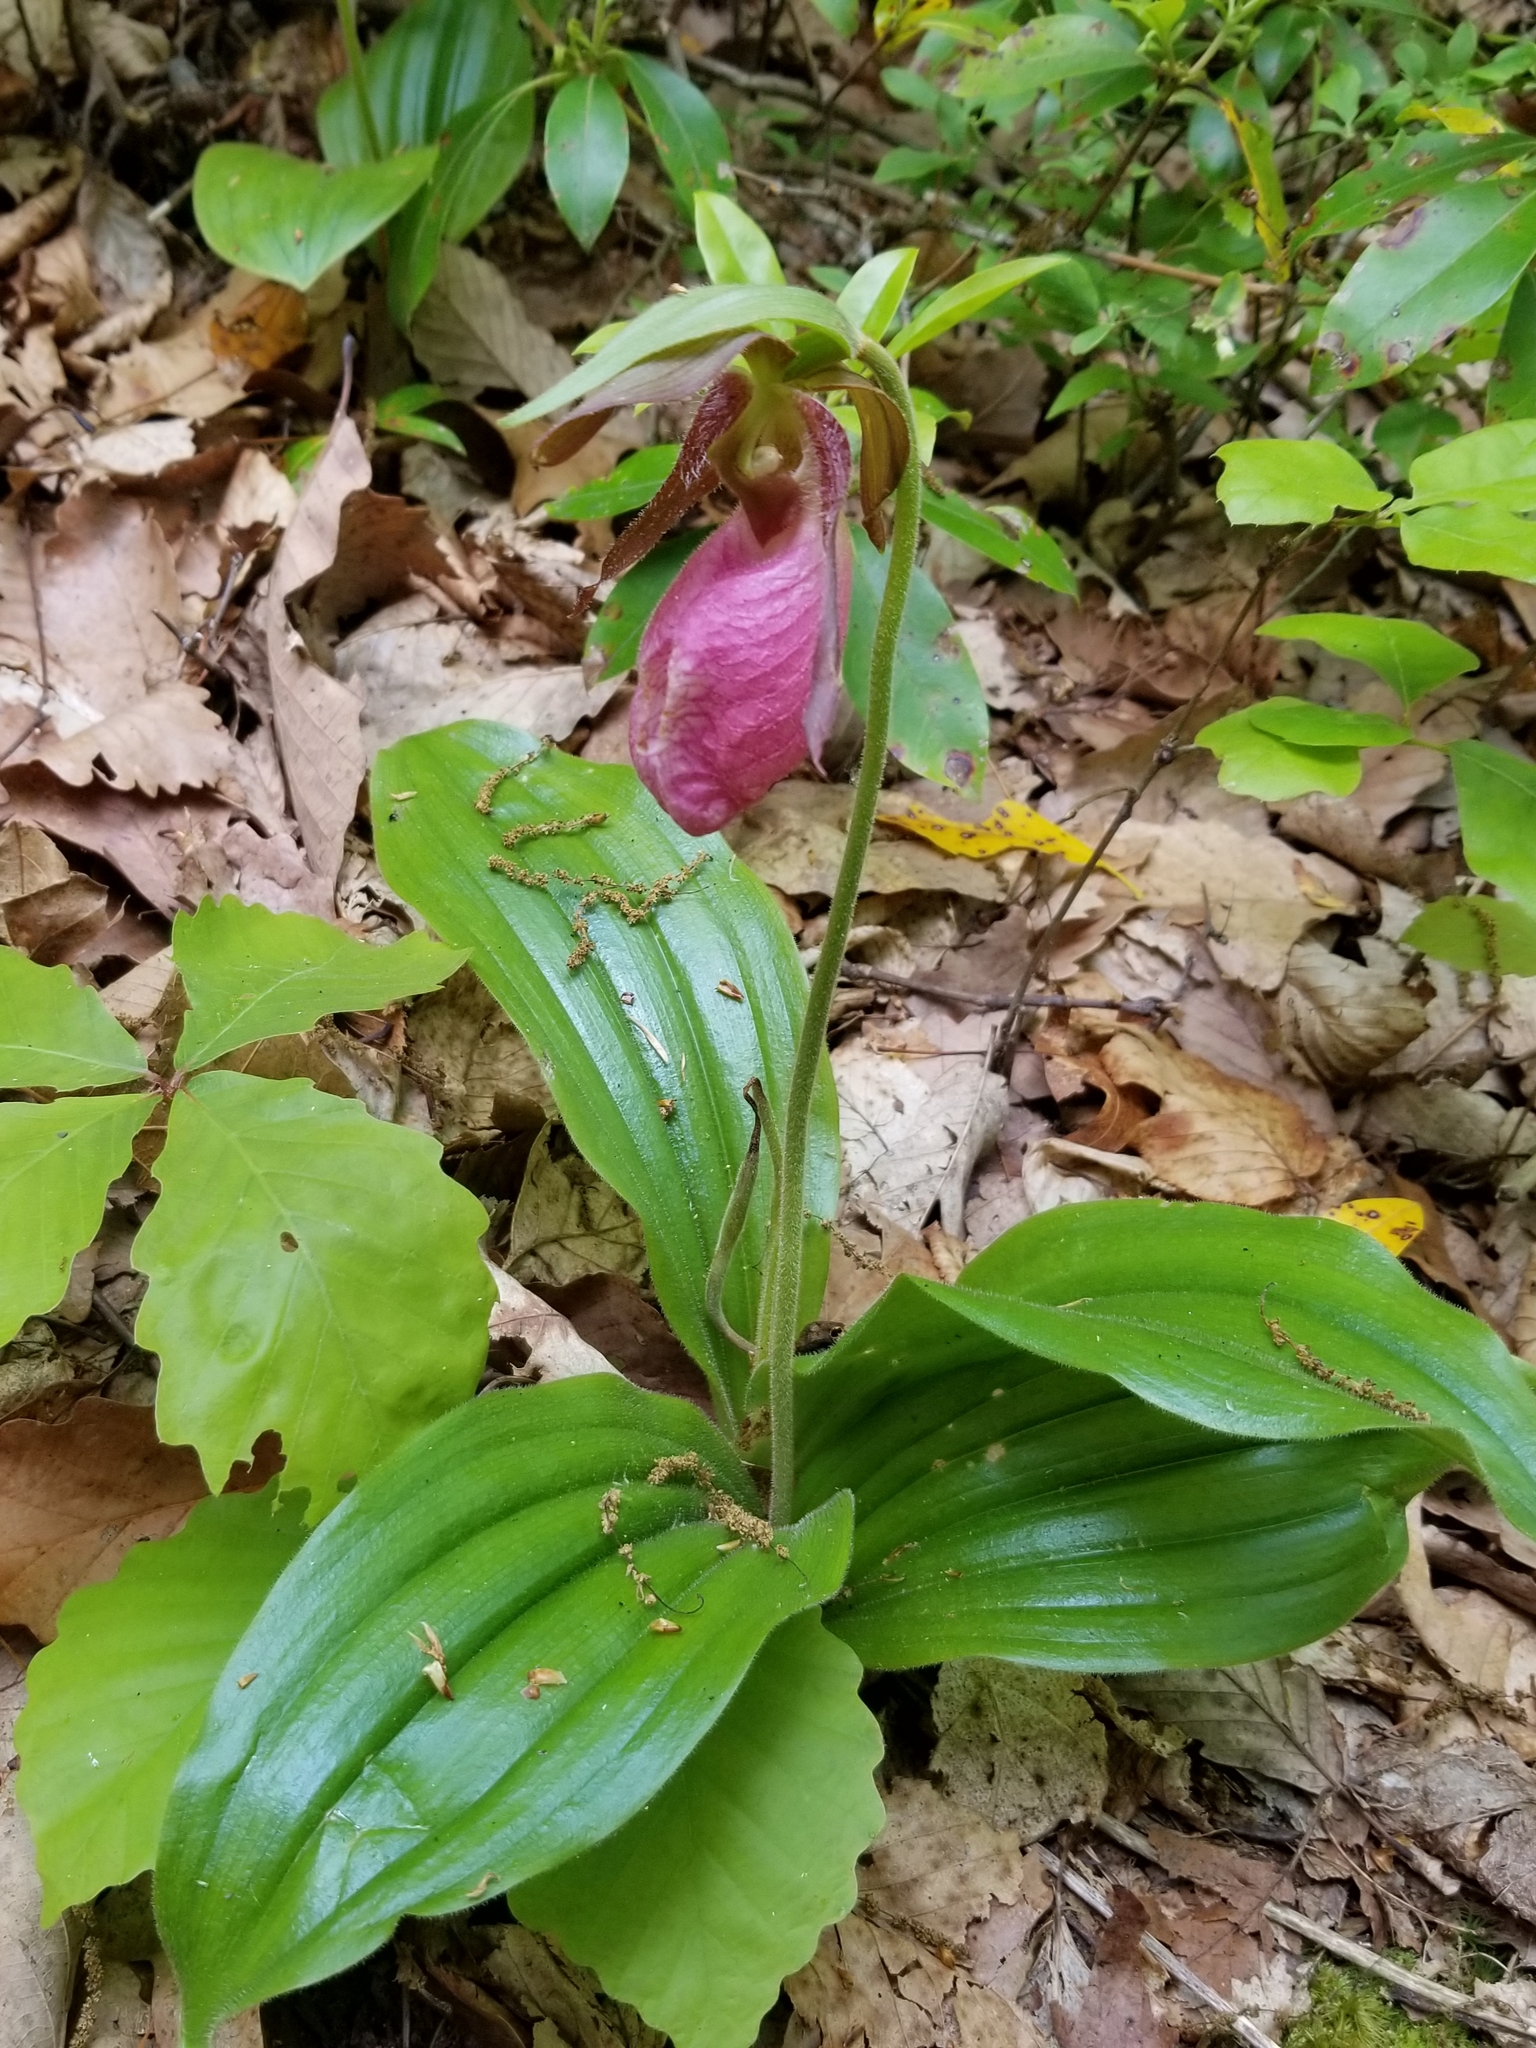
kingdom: Plantae
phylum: Tracheophyta
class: Liliopsida
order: Asparagales
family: Orchidaceae
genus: Cypripedium
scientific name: Cypripedium acaule
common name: Pink lady's-slipper
